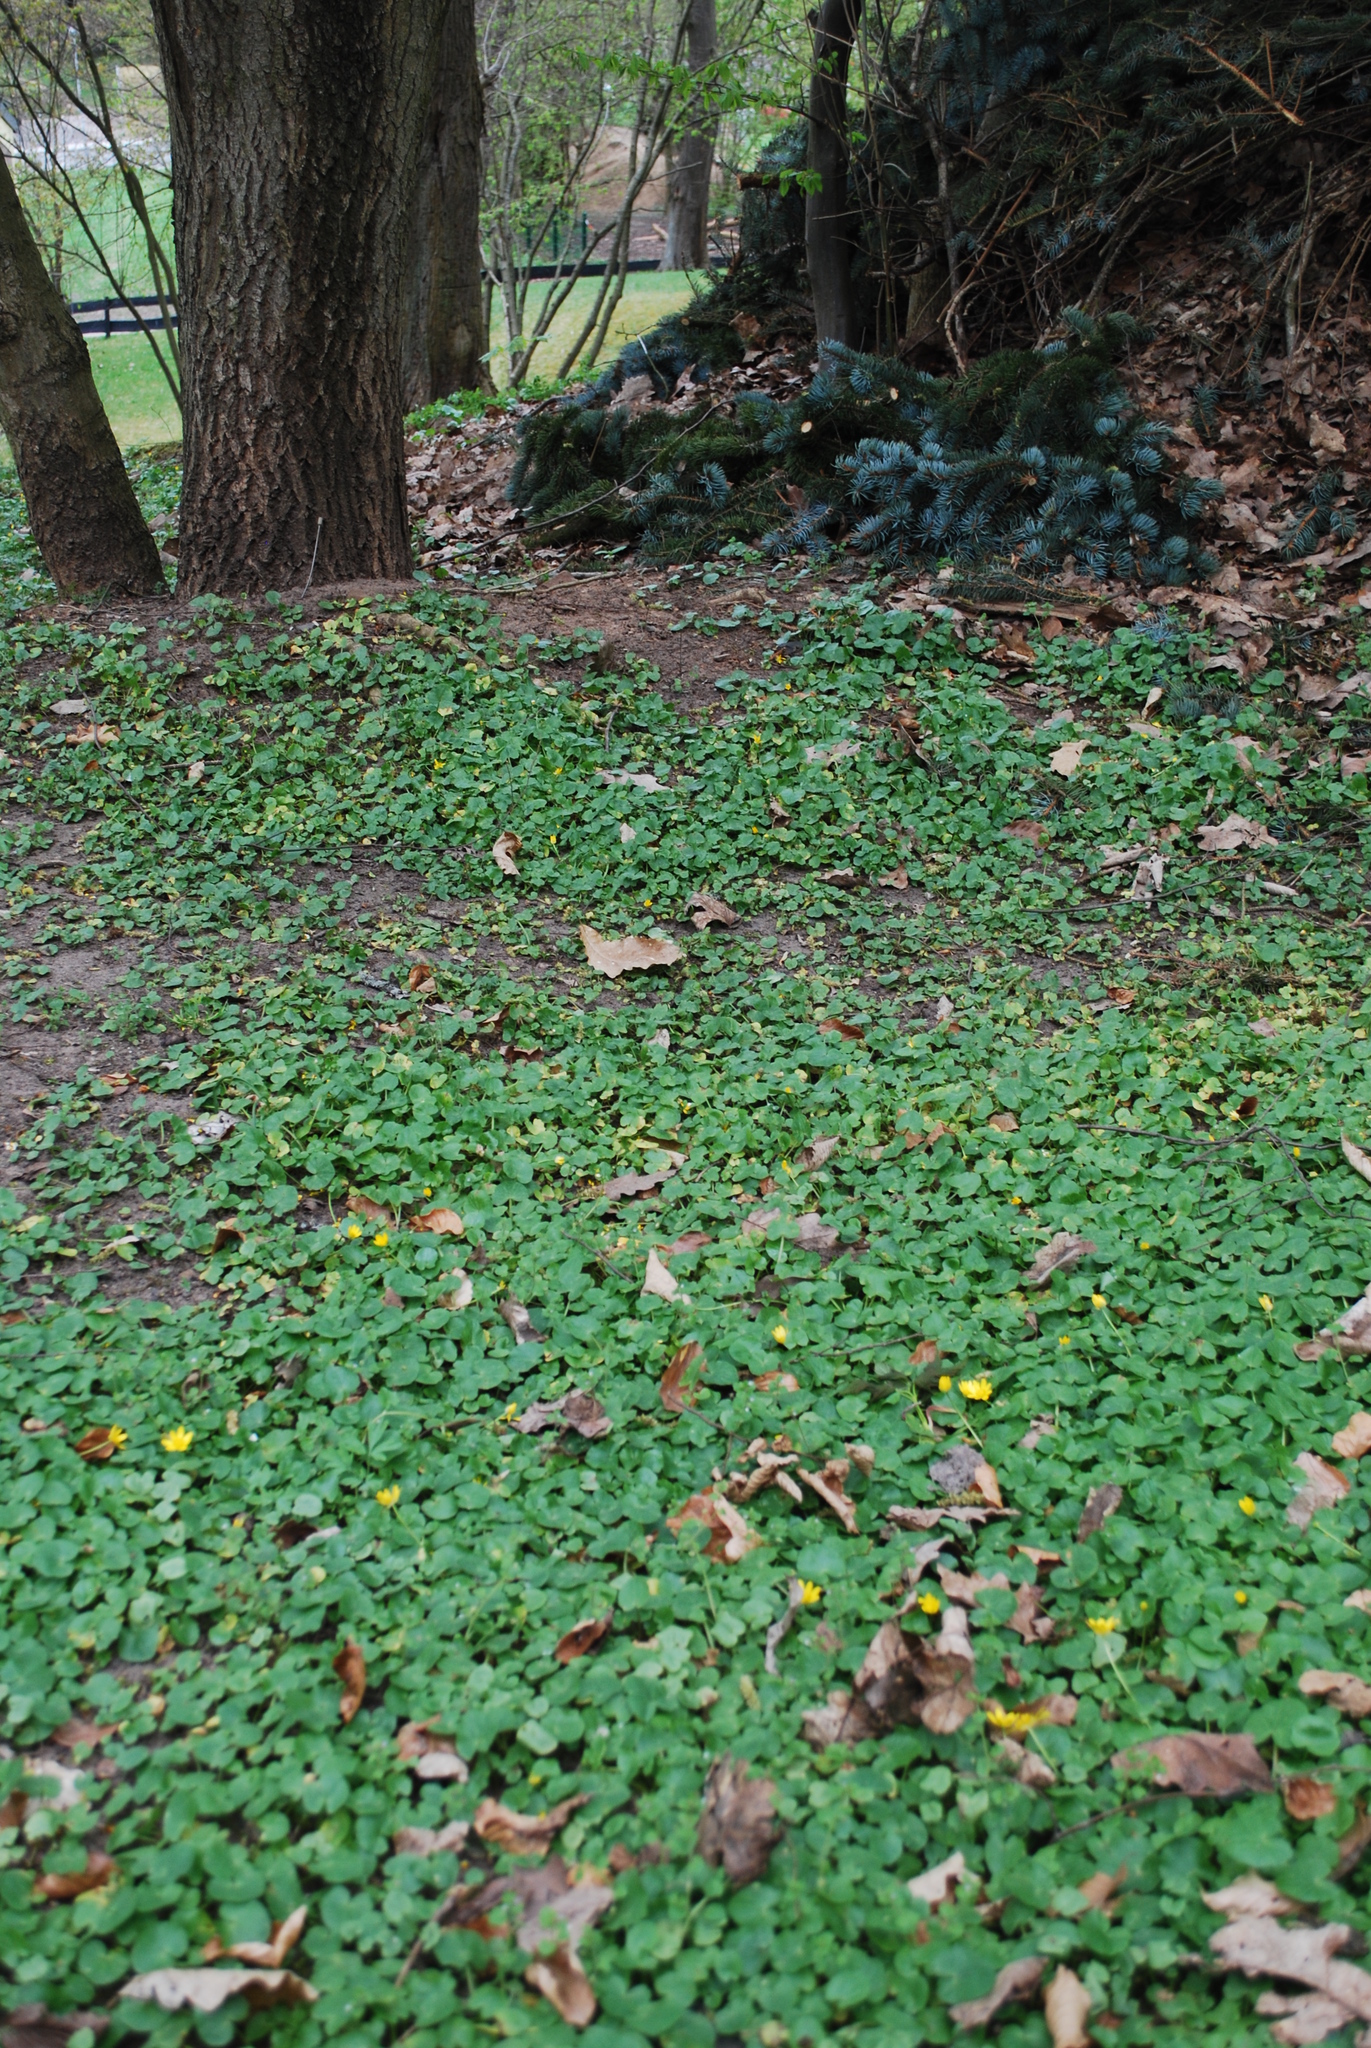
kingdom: Plantae
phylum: Tracheophyta
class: Magnoliopsida
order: Ranunculales
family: Ranunculaceae
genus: Ficaria
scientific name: Ficaria verna
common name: Lesser celandine
